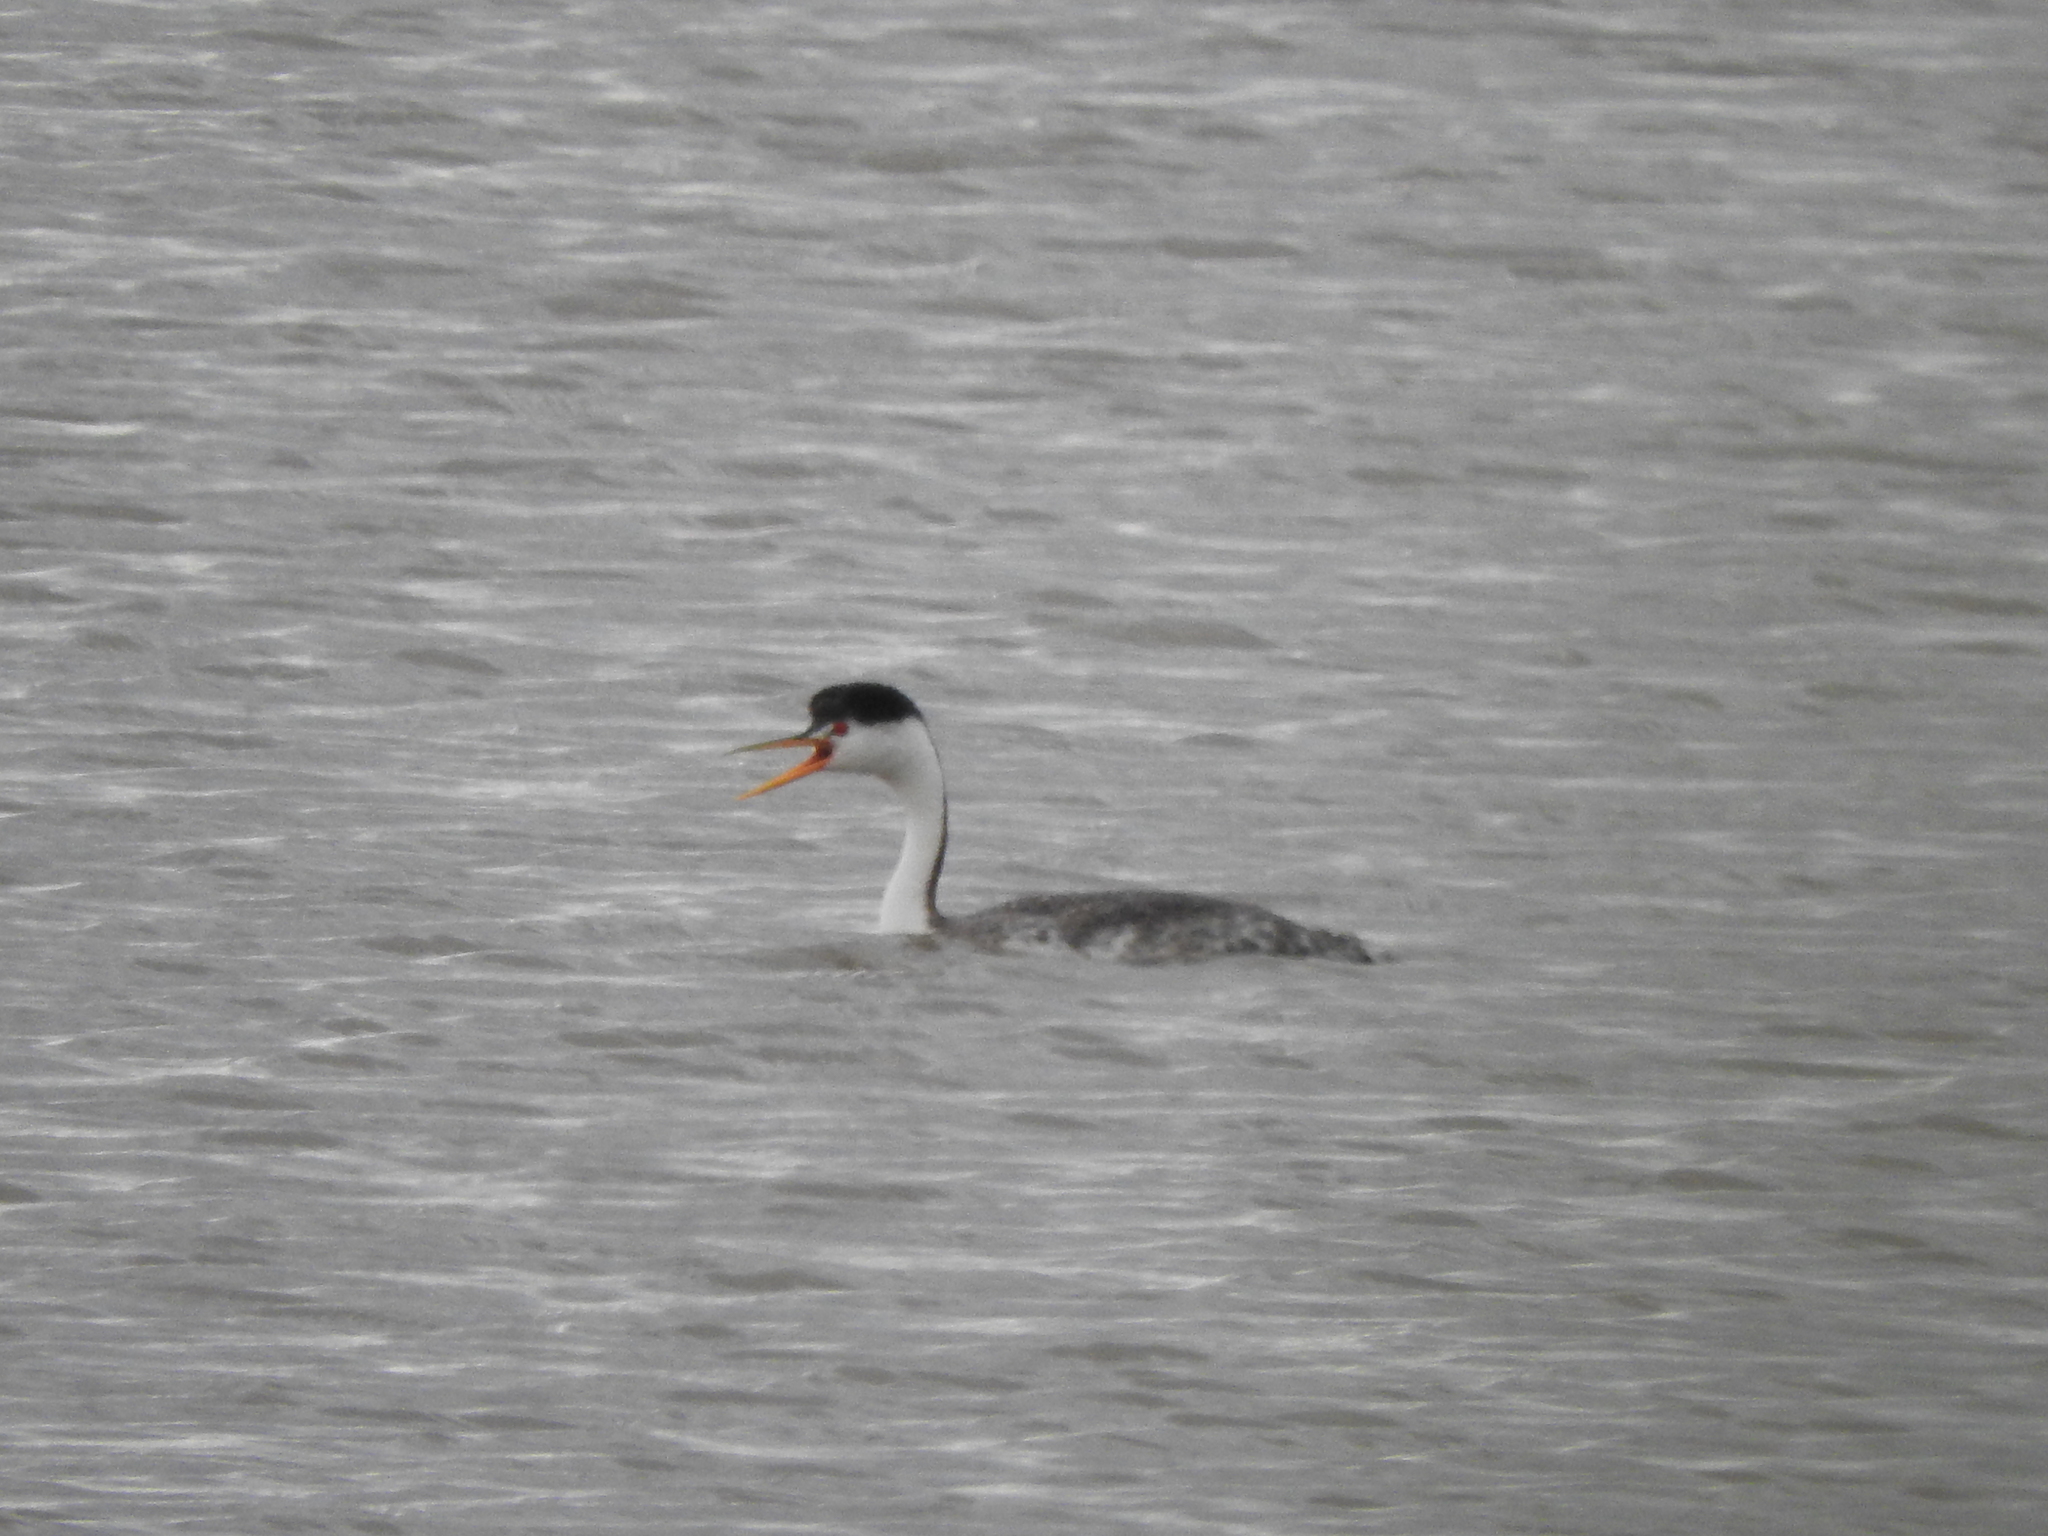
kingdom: Animalia
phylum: Chordata
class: Aves
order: Podicipediformes
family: Podicipedidae
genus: Aechmophorus
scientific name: Aechmophorus clarkii
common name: Clark's grebe
